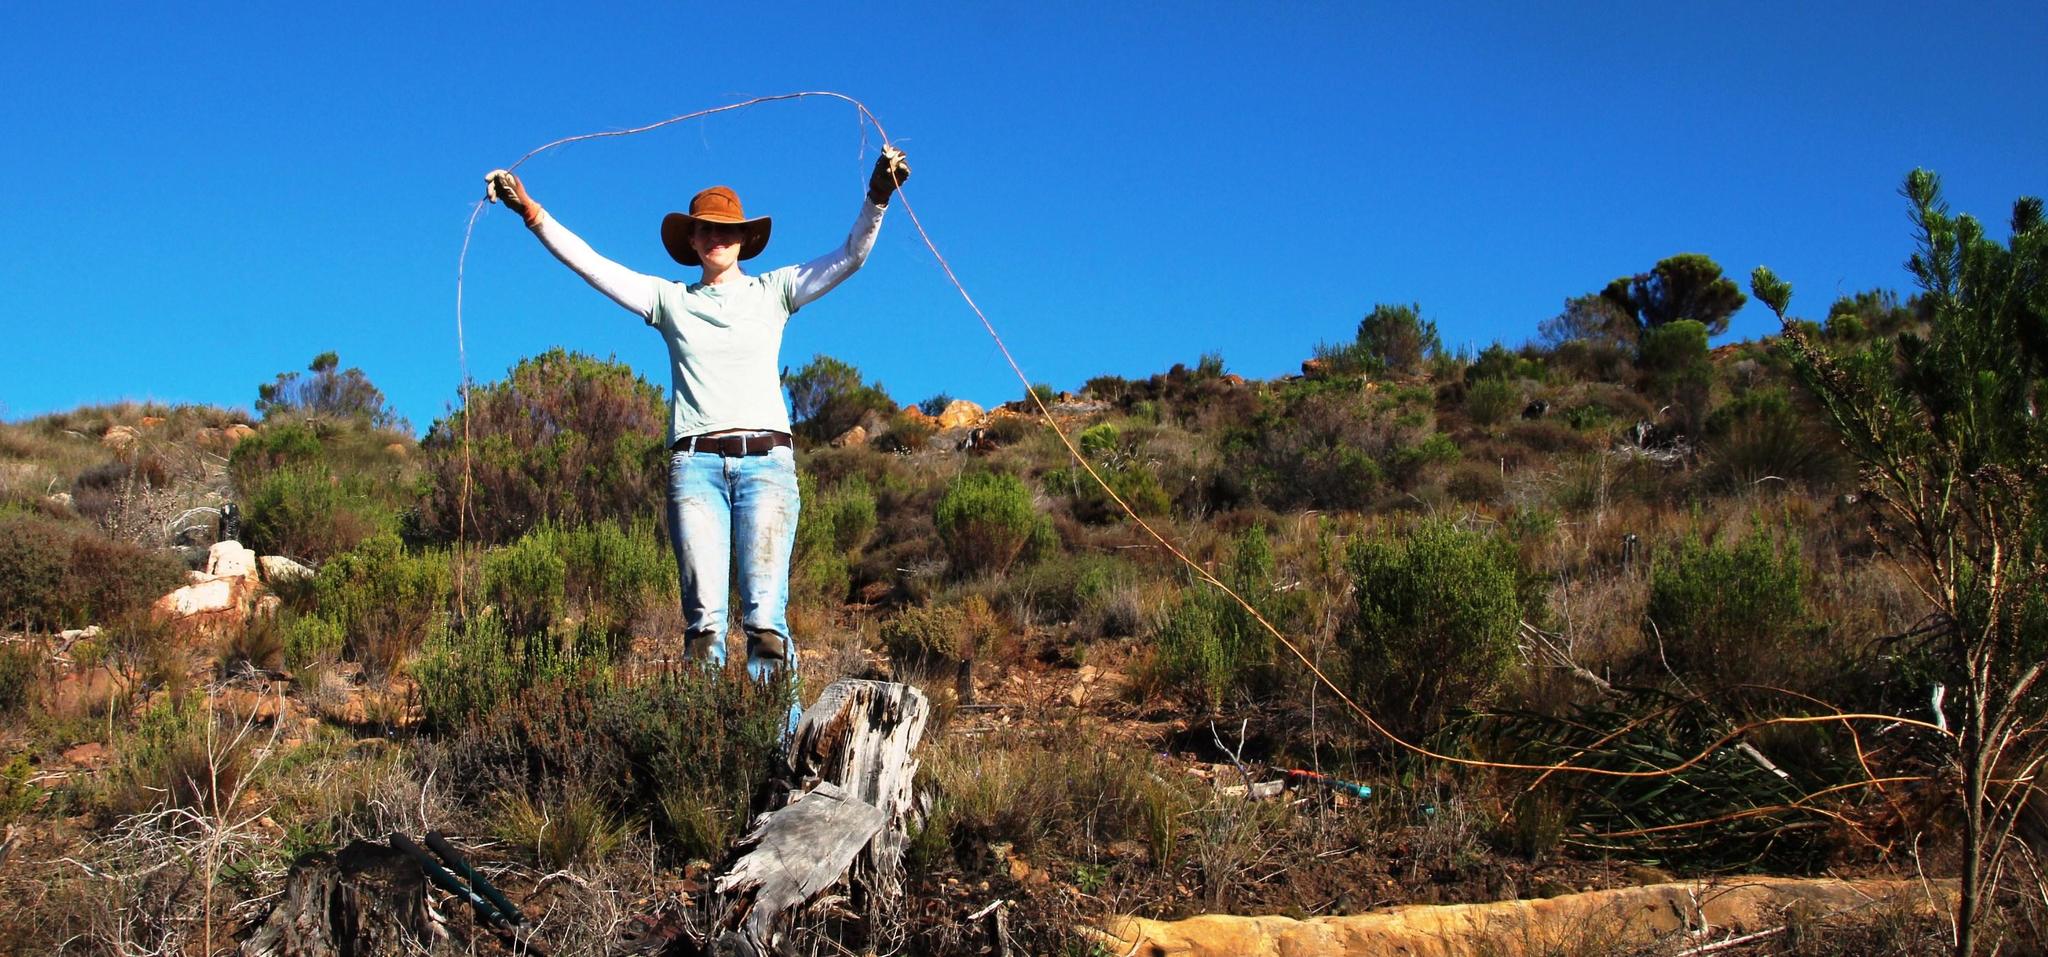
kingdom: Plantae
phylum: Tracheophyta
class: Magnoliopsida
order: Fabales
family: Fabaceae
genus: Acacia
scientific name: Acacia longifolia
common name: Sydney golden wattle
